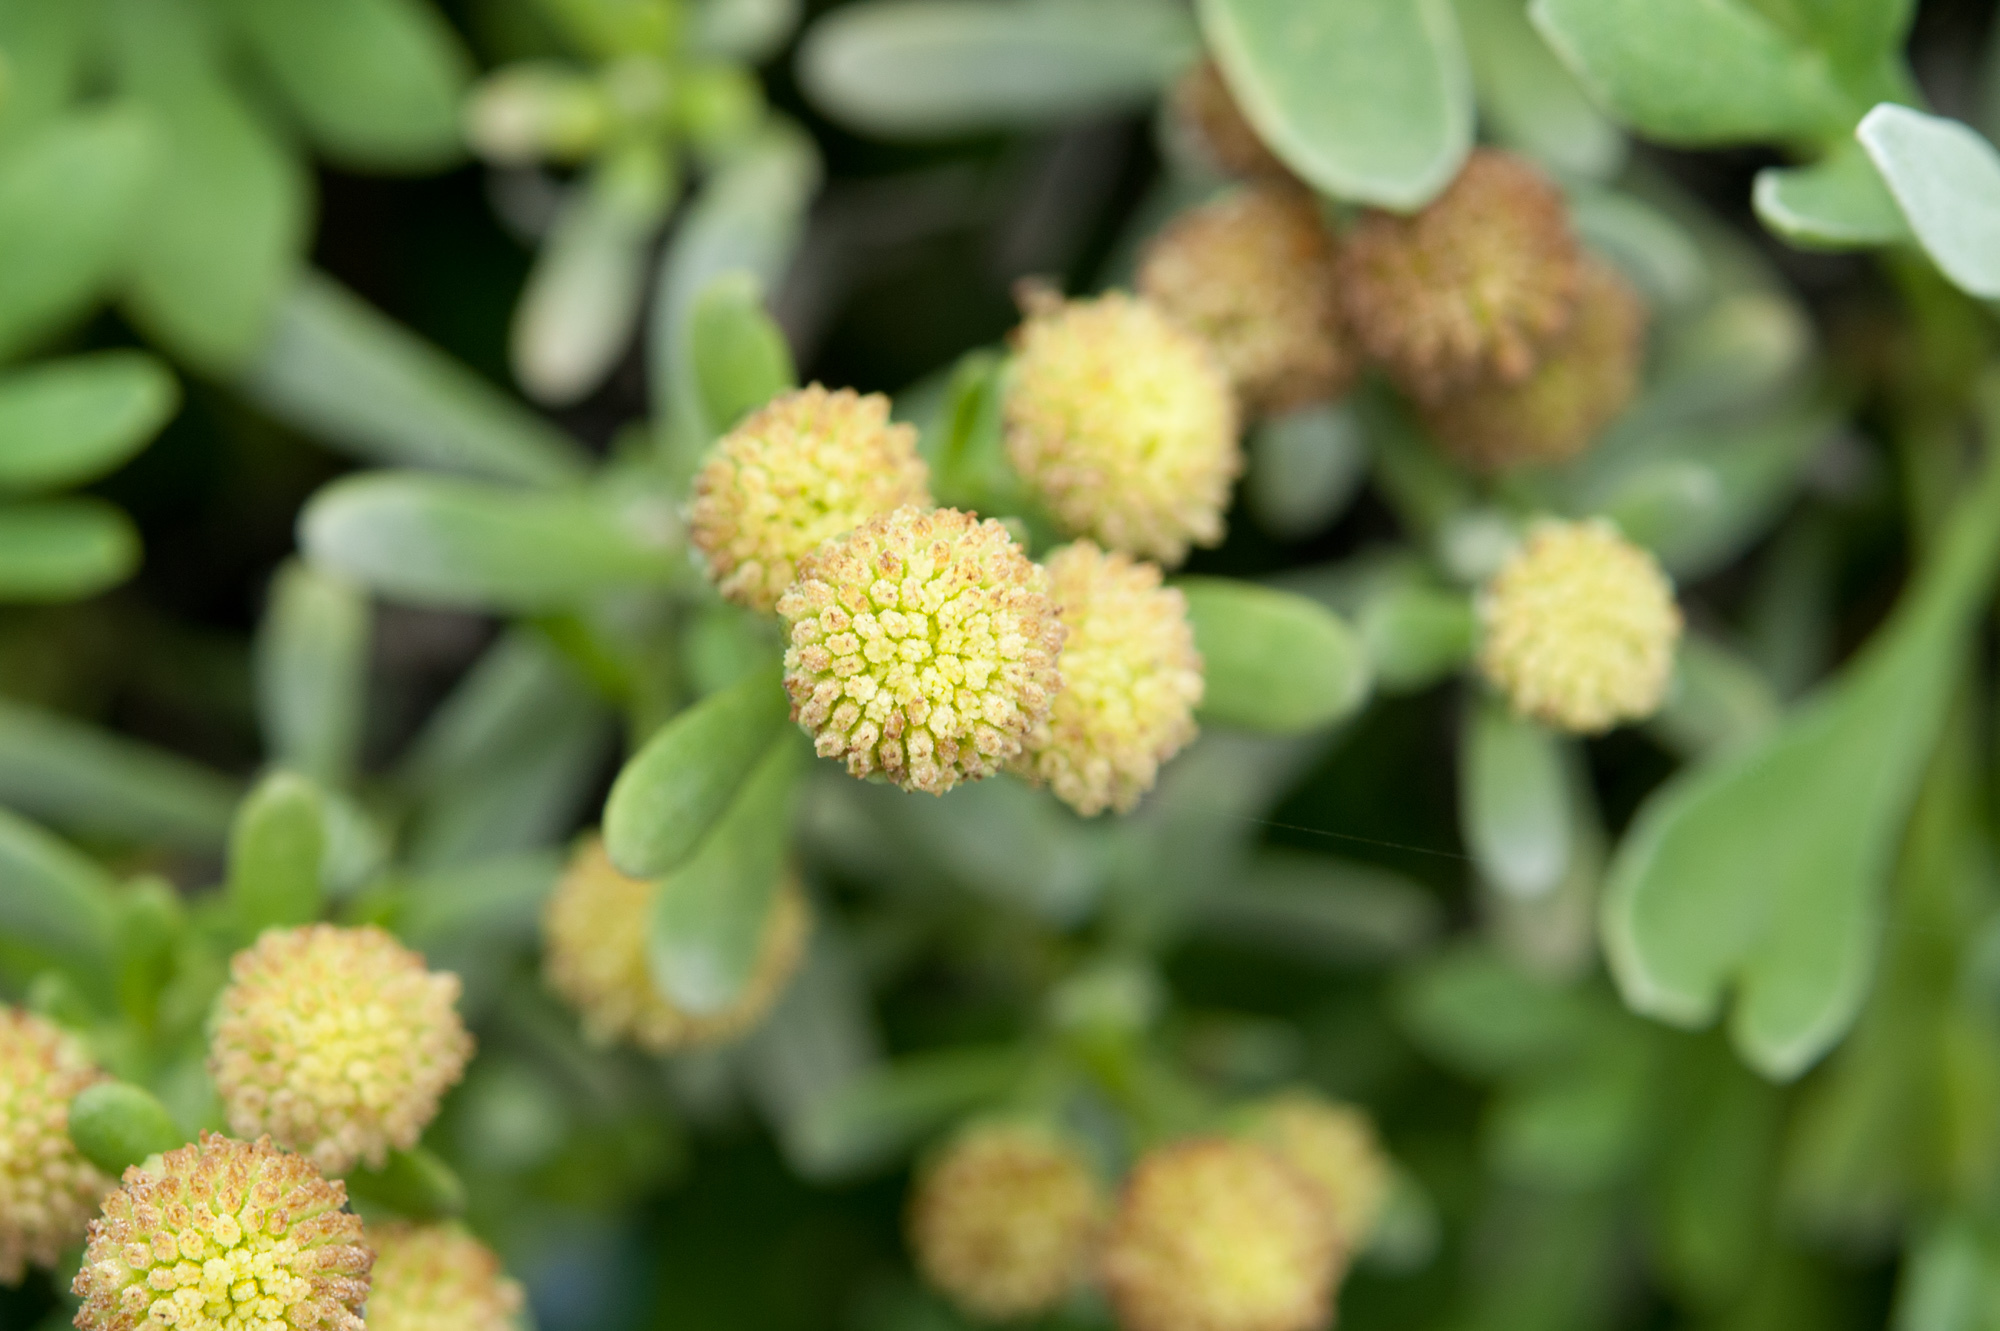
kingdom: Plantae
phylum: Tracheophyta
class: Magnoliopsida
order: Asterales
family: Asteraceae
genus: Crossostephium
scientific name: Crossostephium chinense
